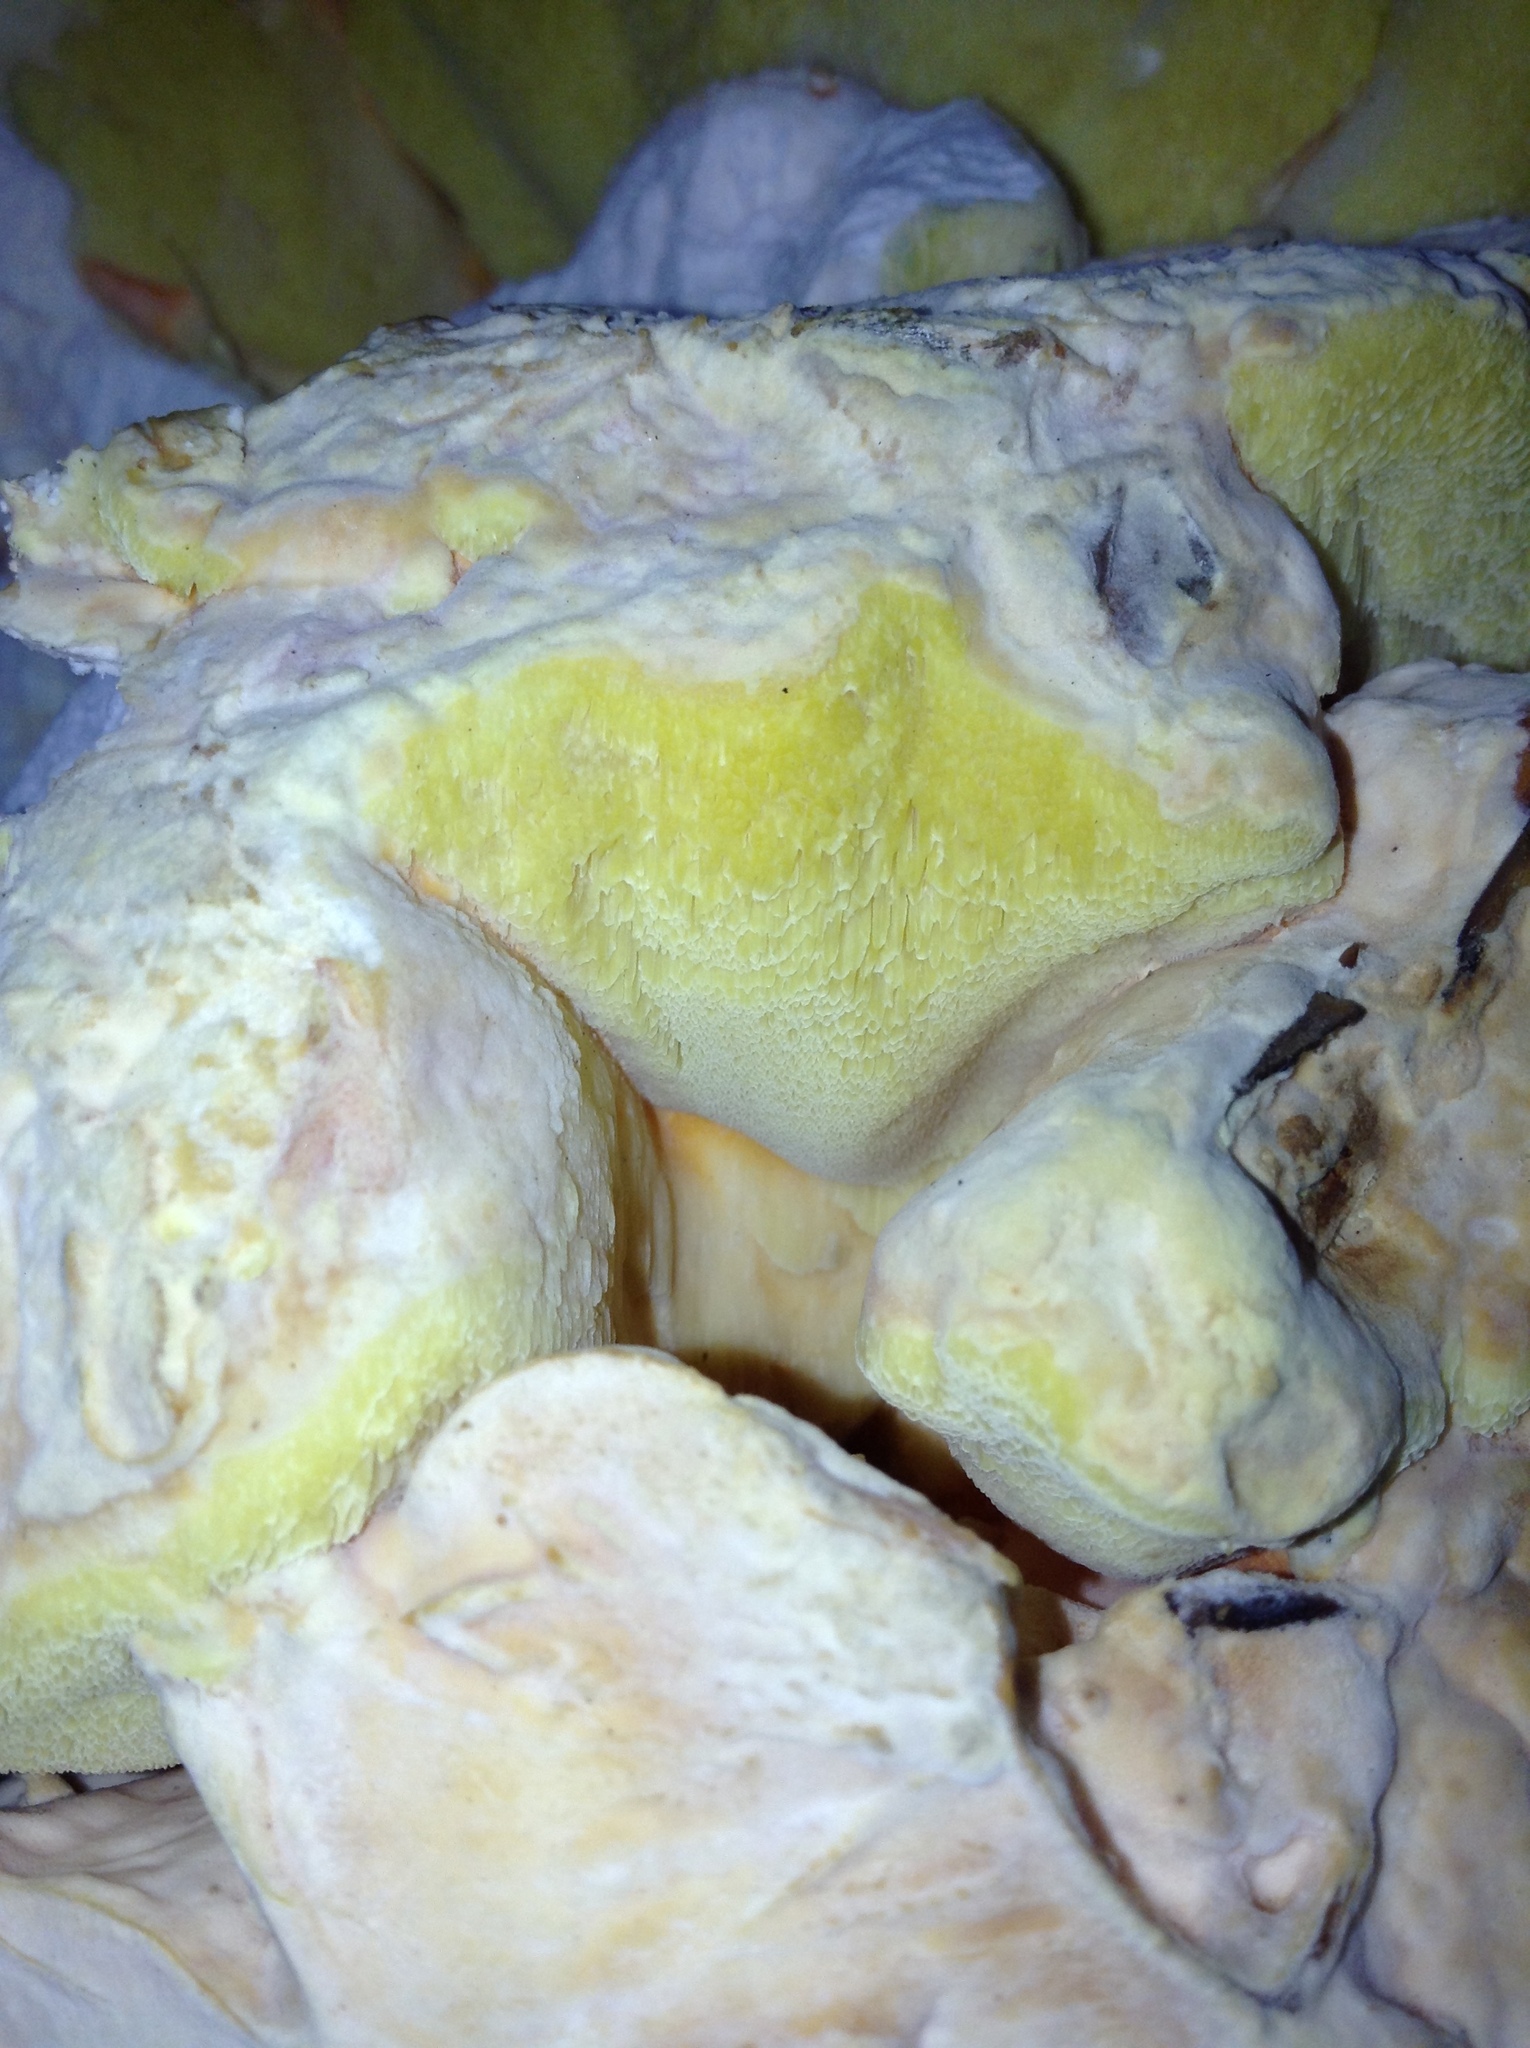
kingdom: Fungi
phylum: Basidiomycota
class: Agaricomycetes
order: Polyporales
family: Laetiporaceae
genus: Laetiporus
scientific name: Laetiporus gilbertsonii
